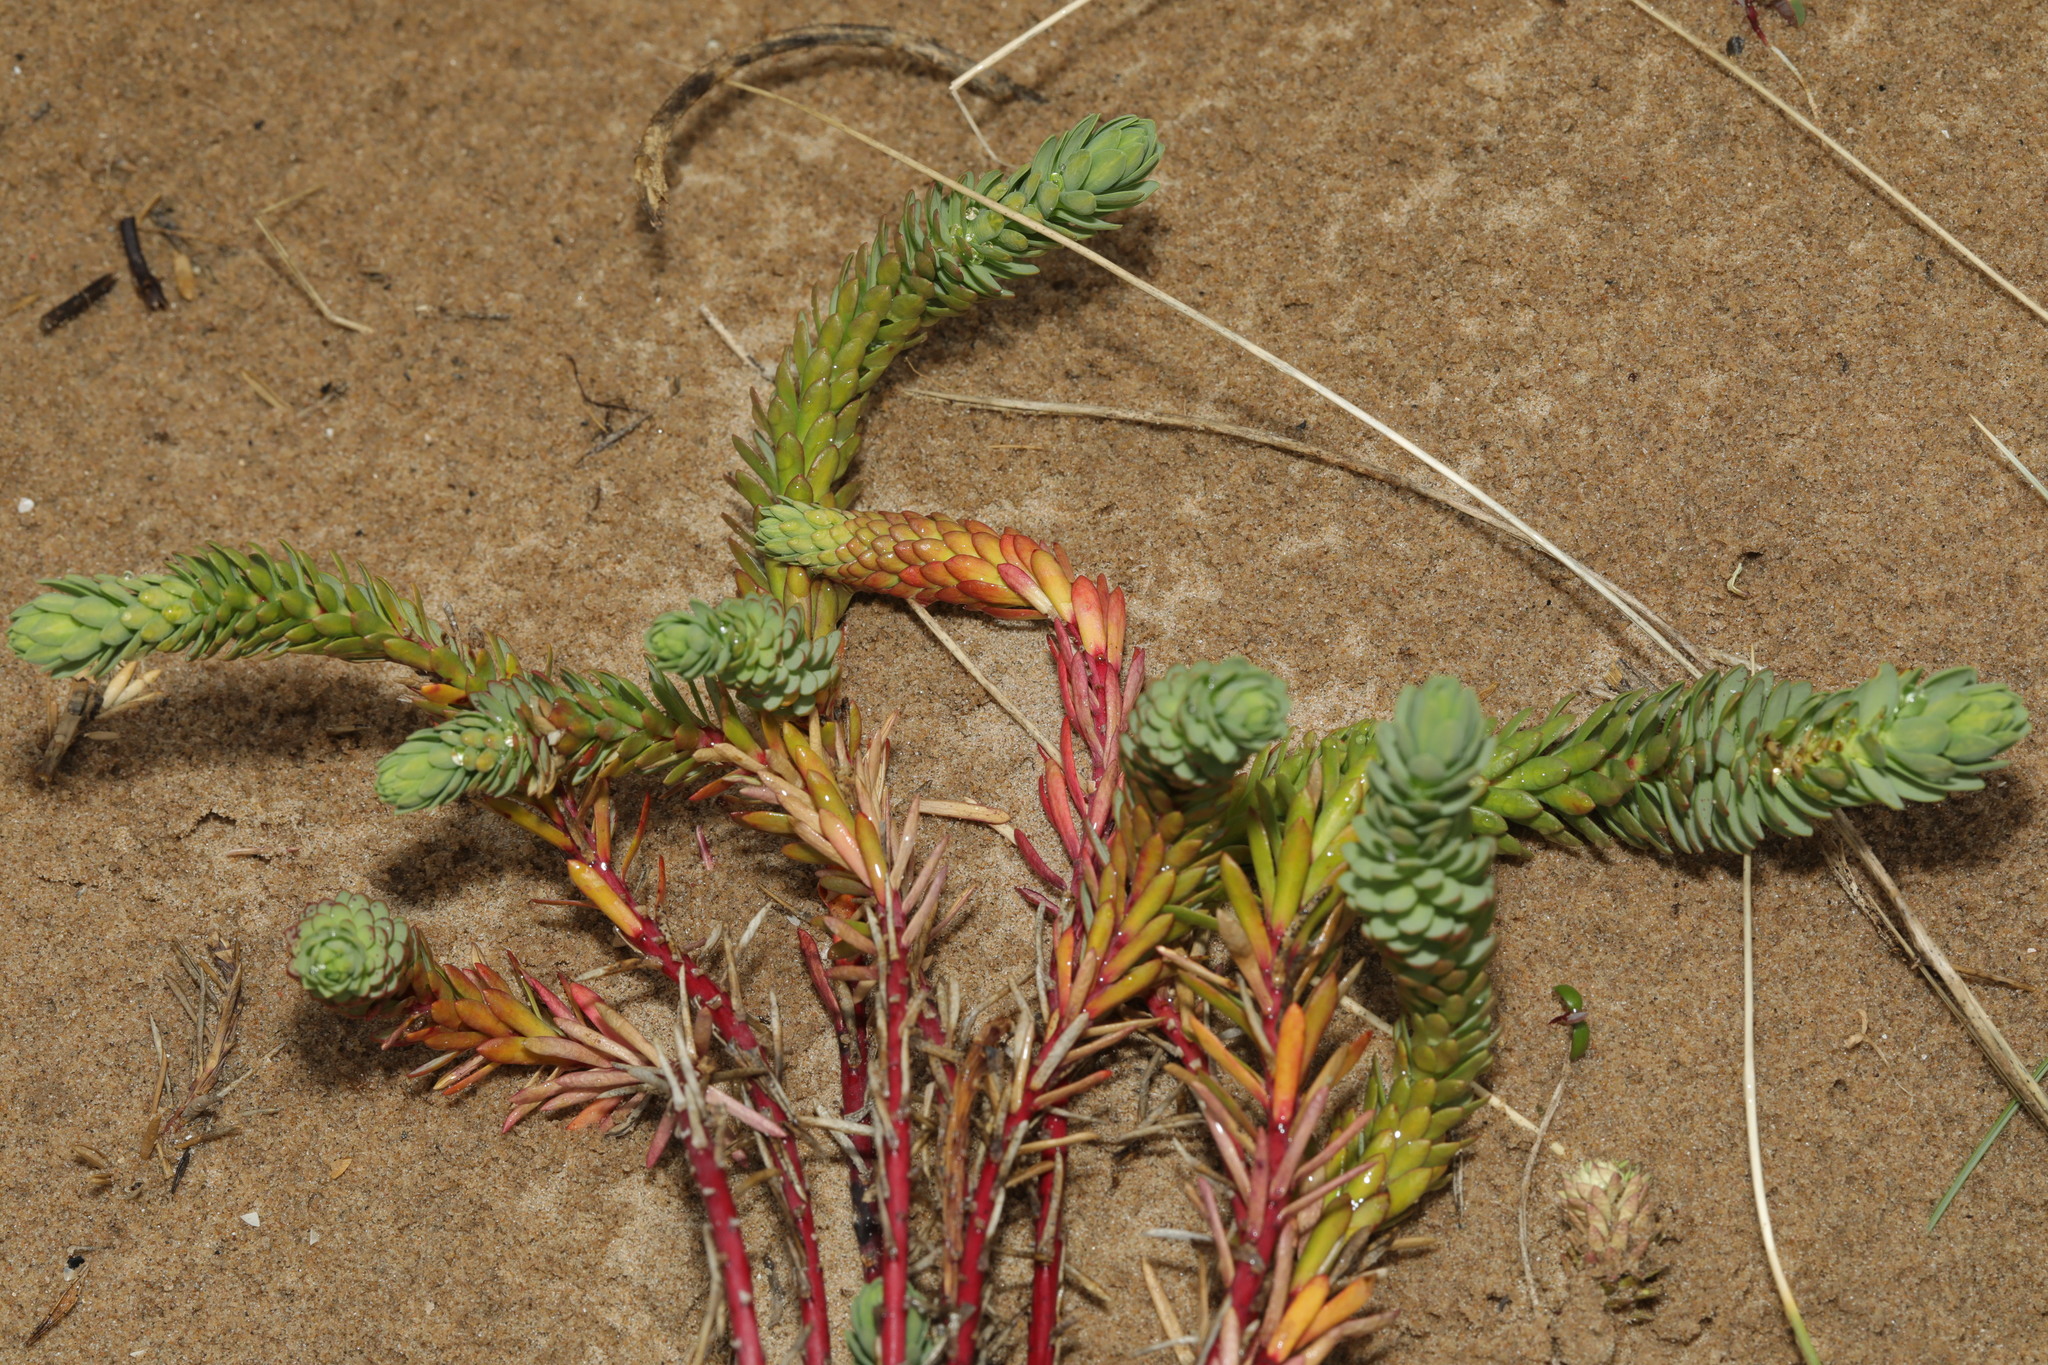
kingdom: Plantae
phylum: Tracheophyta
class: Magnoliopsida
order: Malpighiales
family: Euphorbiaceae
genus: Euphorbia
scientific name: Euphorbia paralias
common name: Sea spurge
